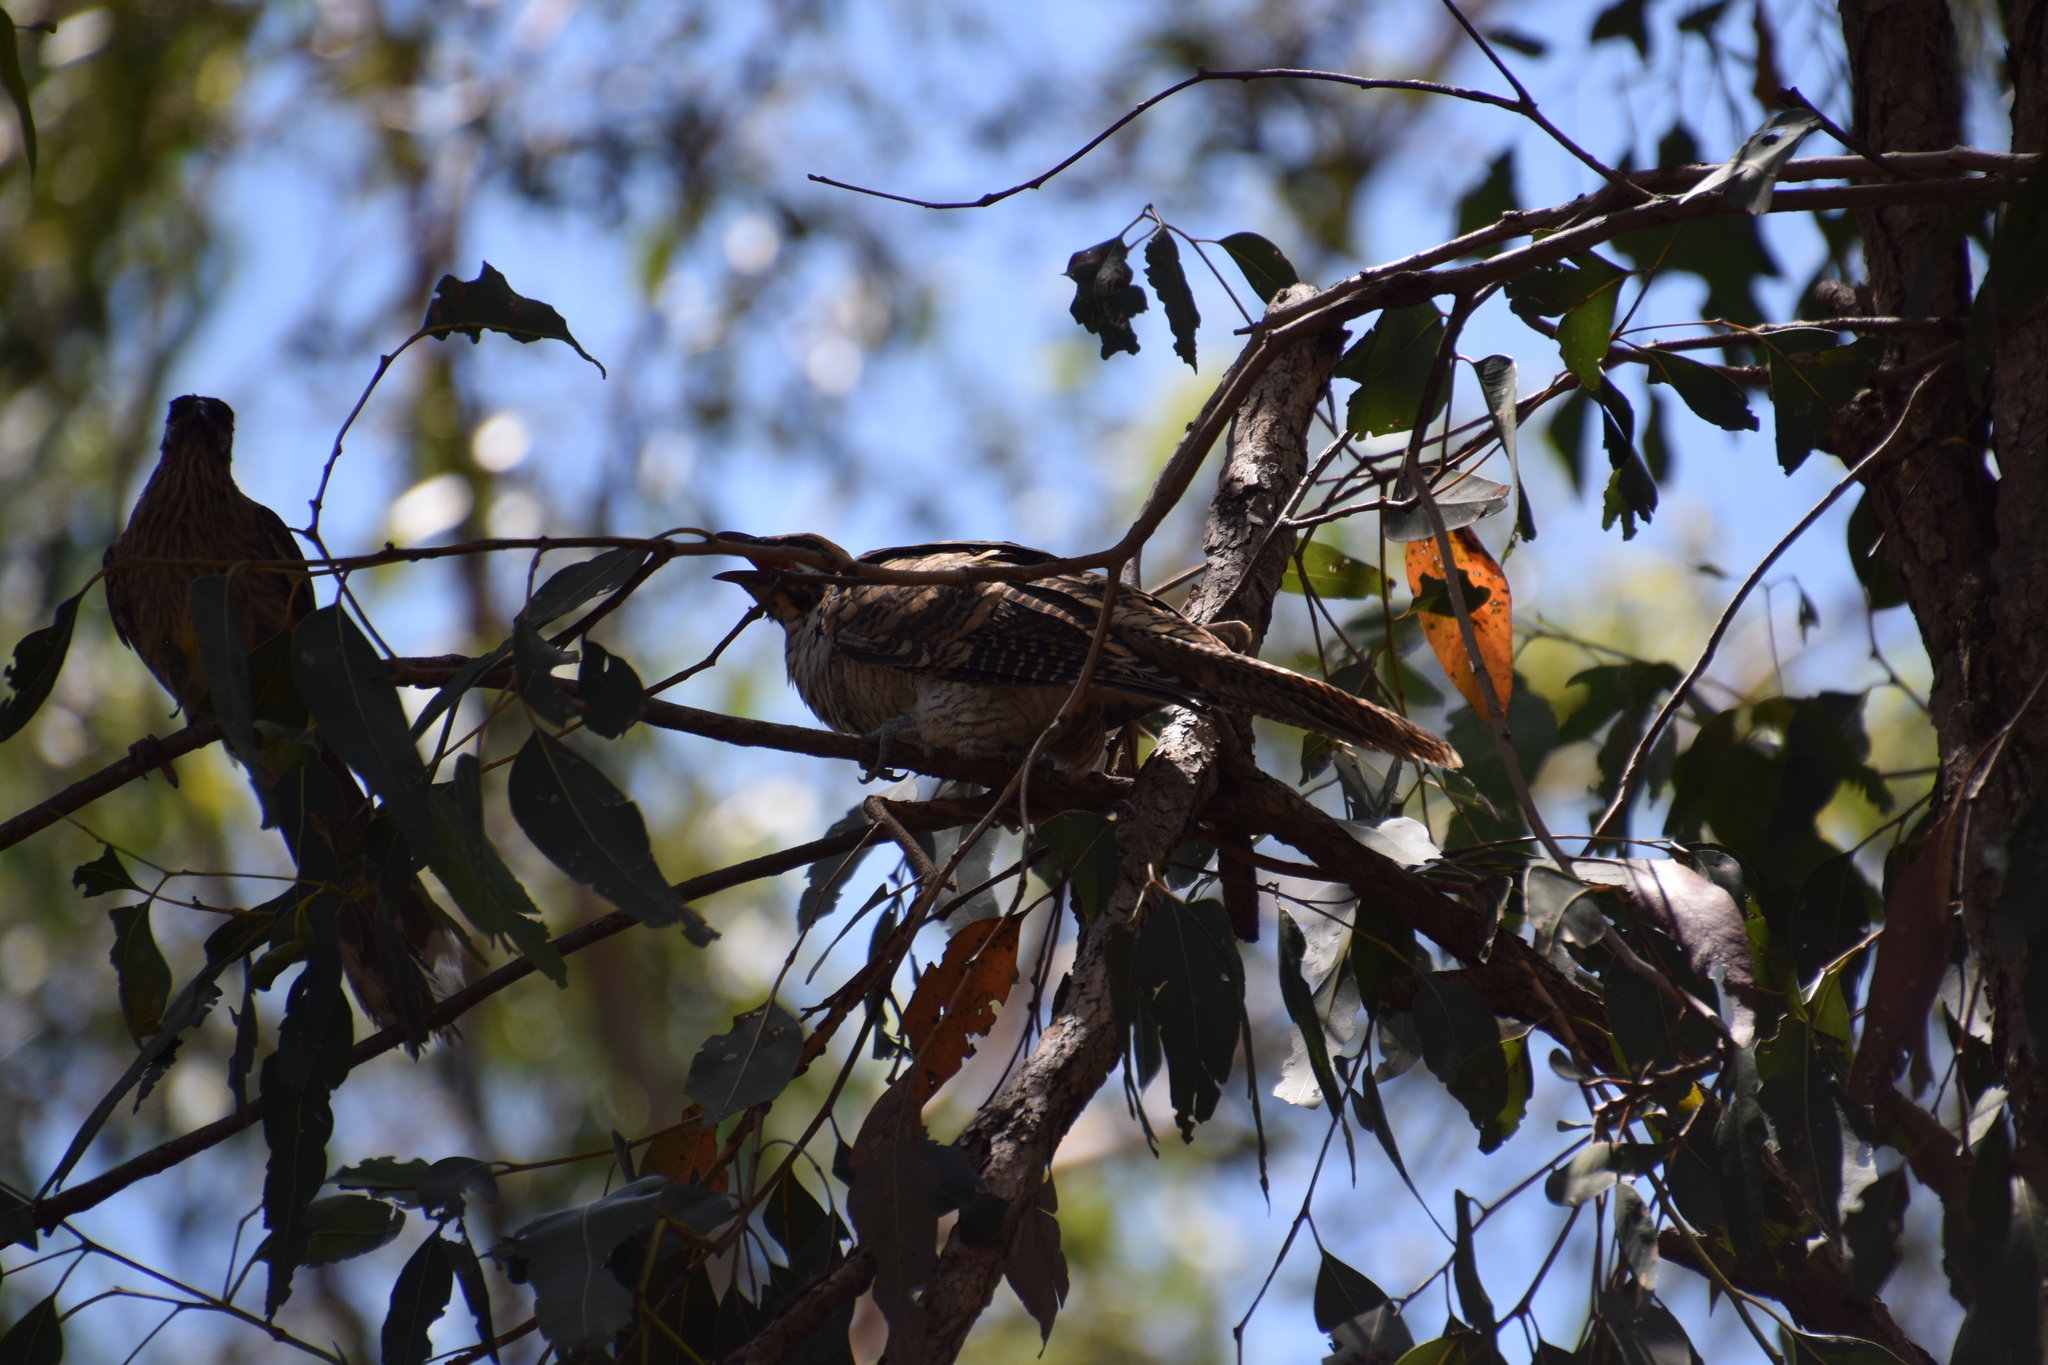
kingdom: Animalia
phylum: Chordata
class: Aves
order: Cuculiformes
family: Cuculidae
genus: Eudynamys
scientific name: Eudynamys orientalis
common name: Pacific koel
